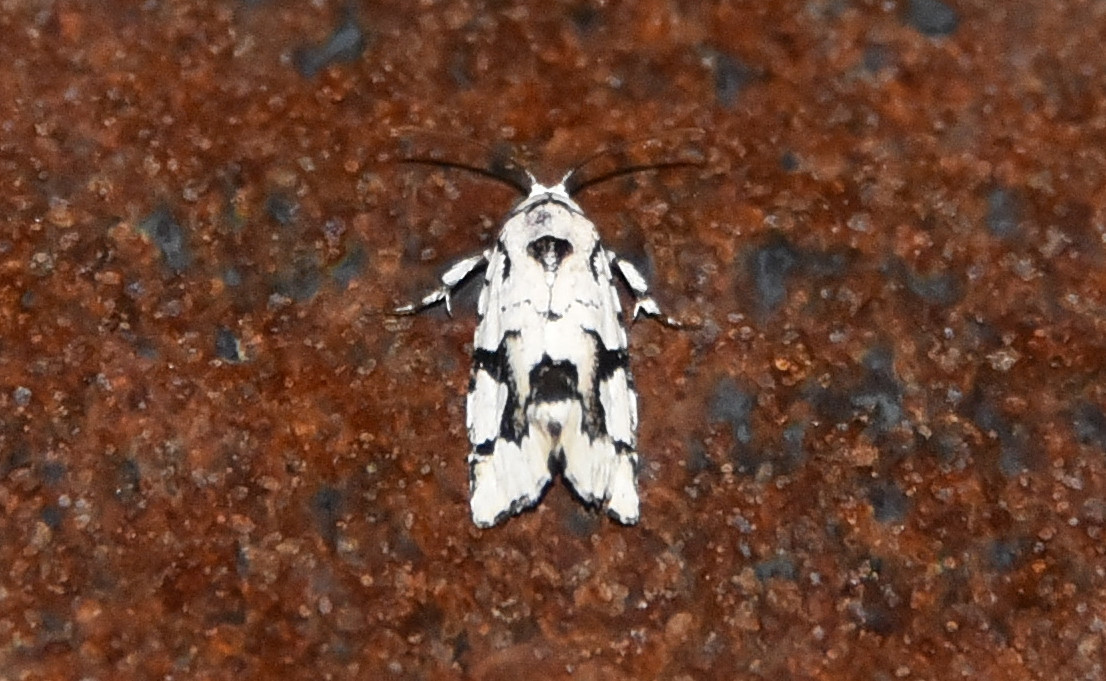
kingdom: Animalia
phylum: Arthropoda
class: Insecta
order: Lepidoptera
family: Noctuidae
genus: Emarginea
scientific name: Emarginea percara
